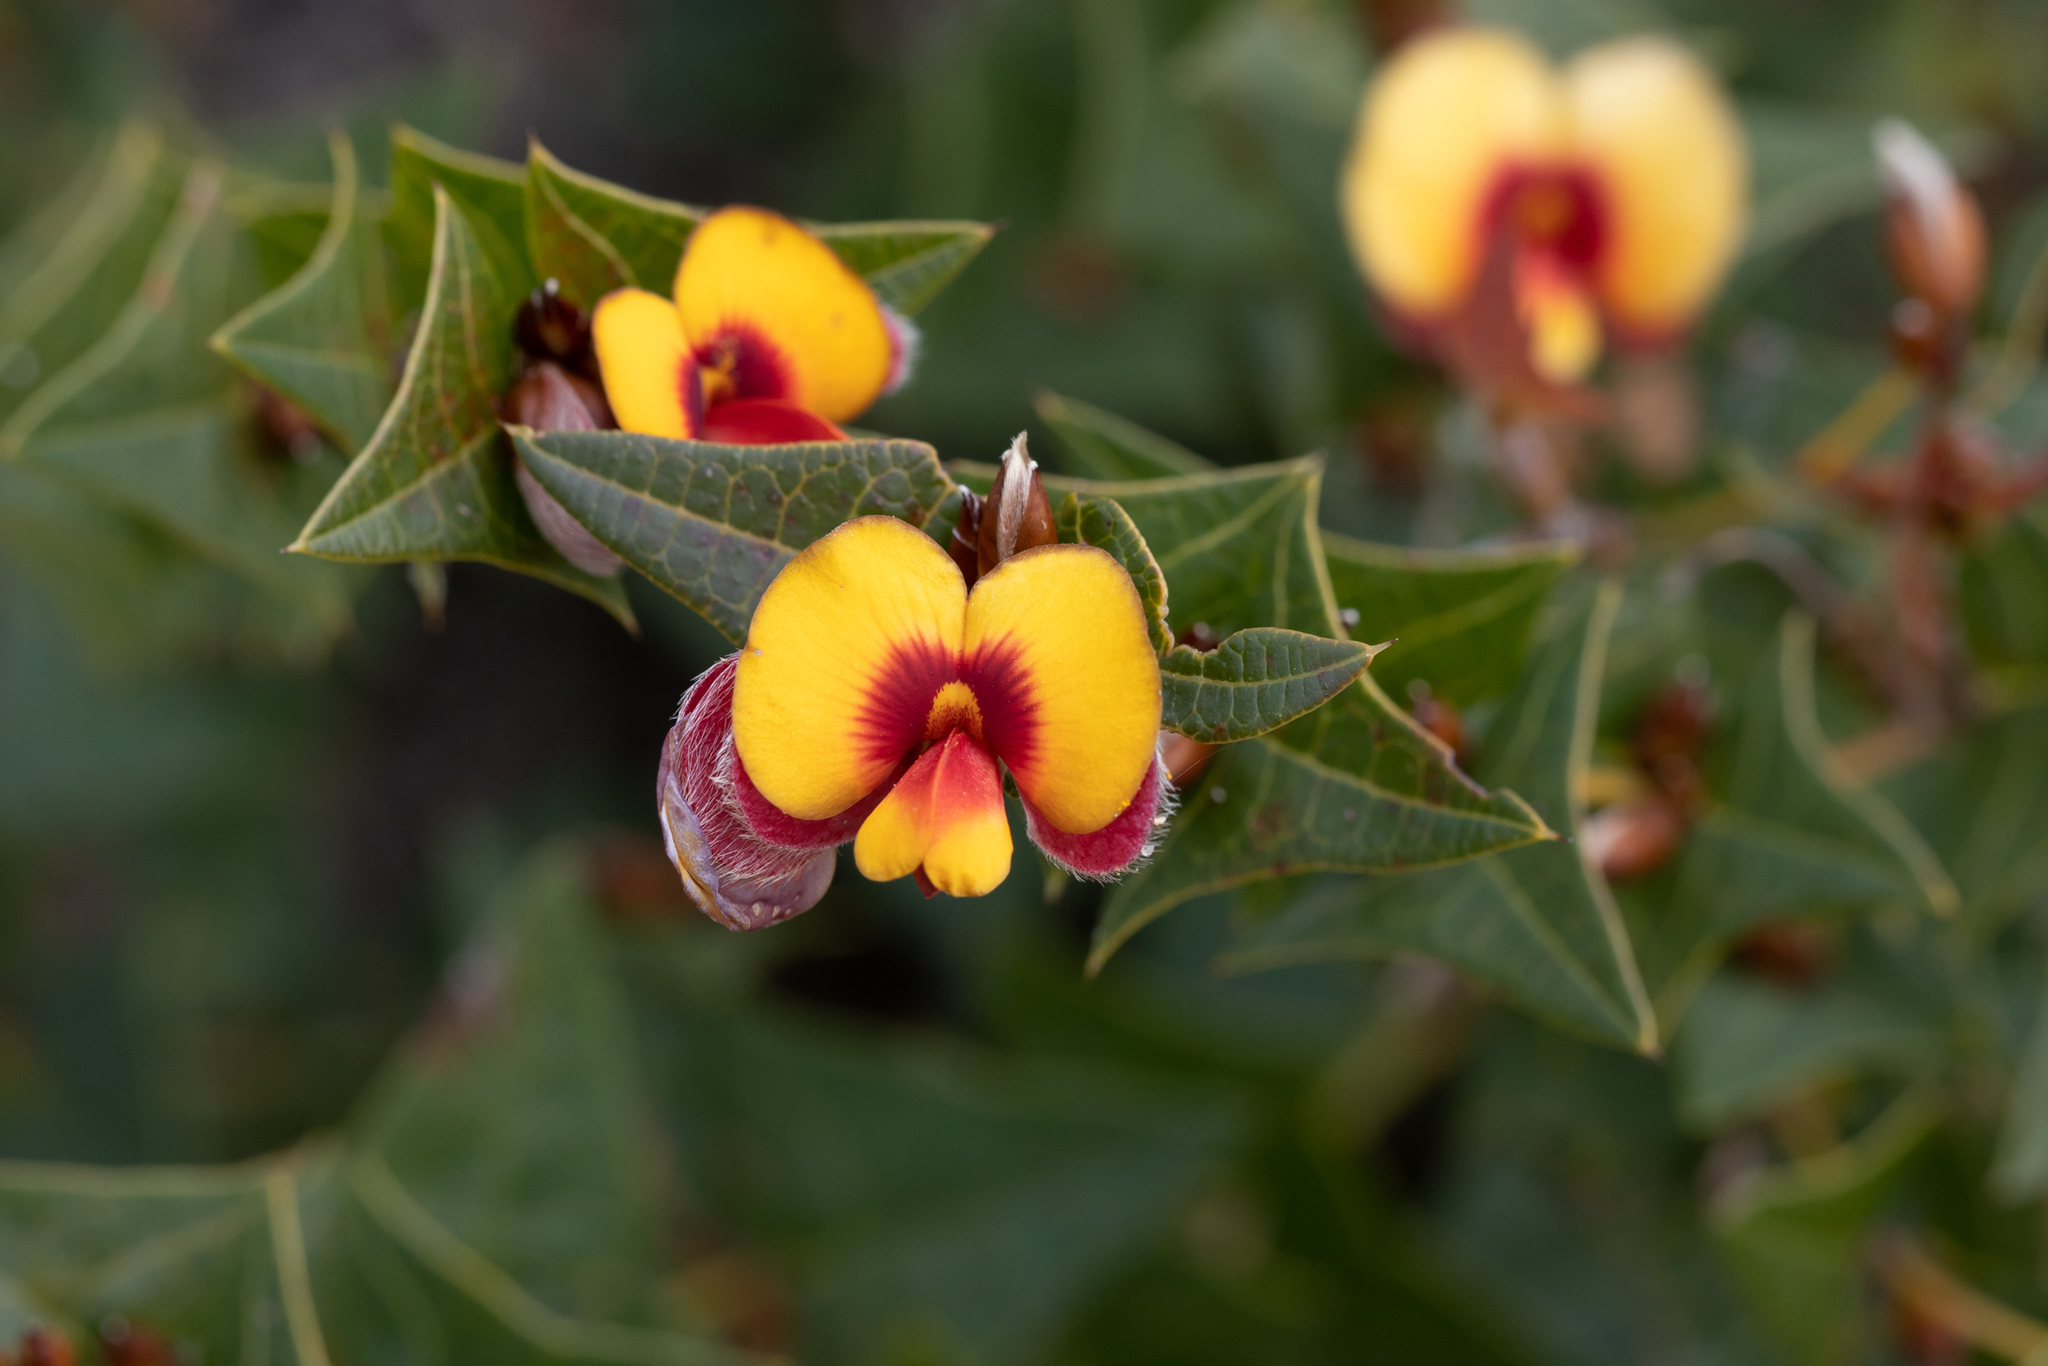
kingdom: Plantae
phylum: Tracheophyta
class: Magnoliopsida
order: Fabales
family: Fabaceae
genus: Platylobium
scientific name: Platylobium obtusangulum
